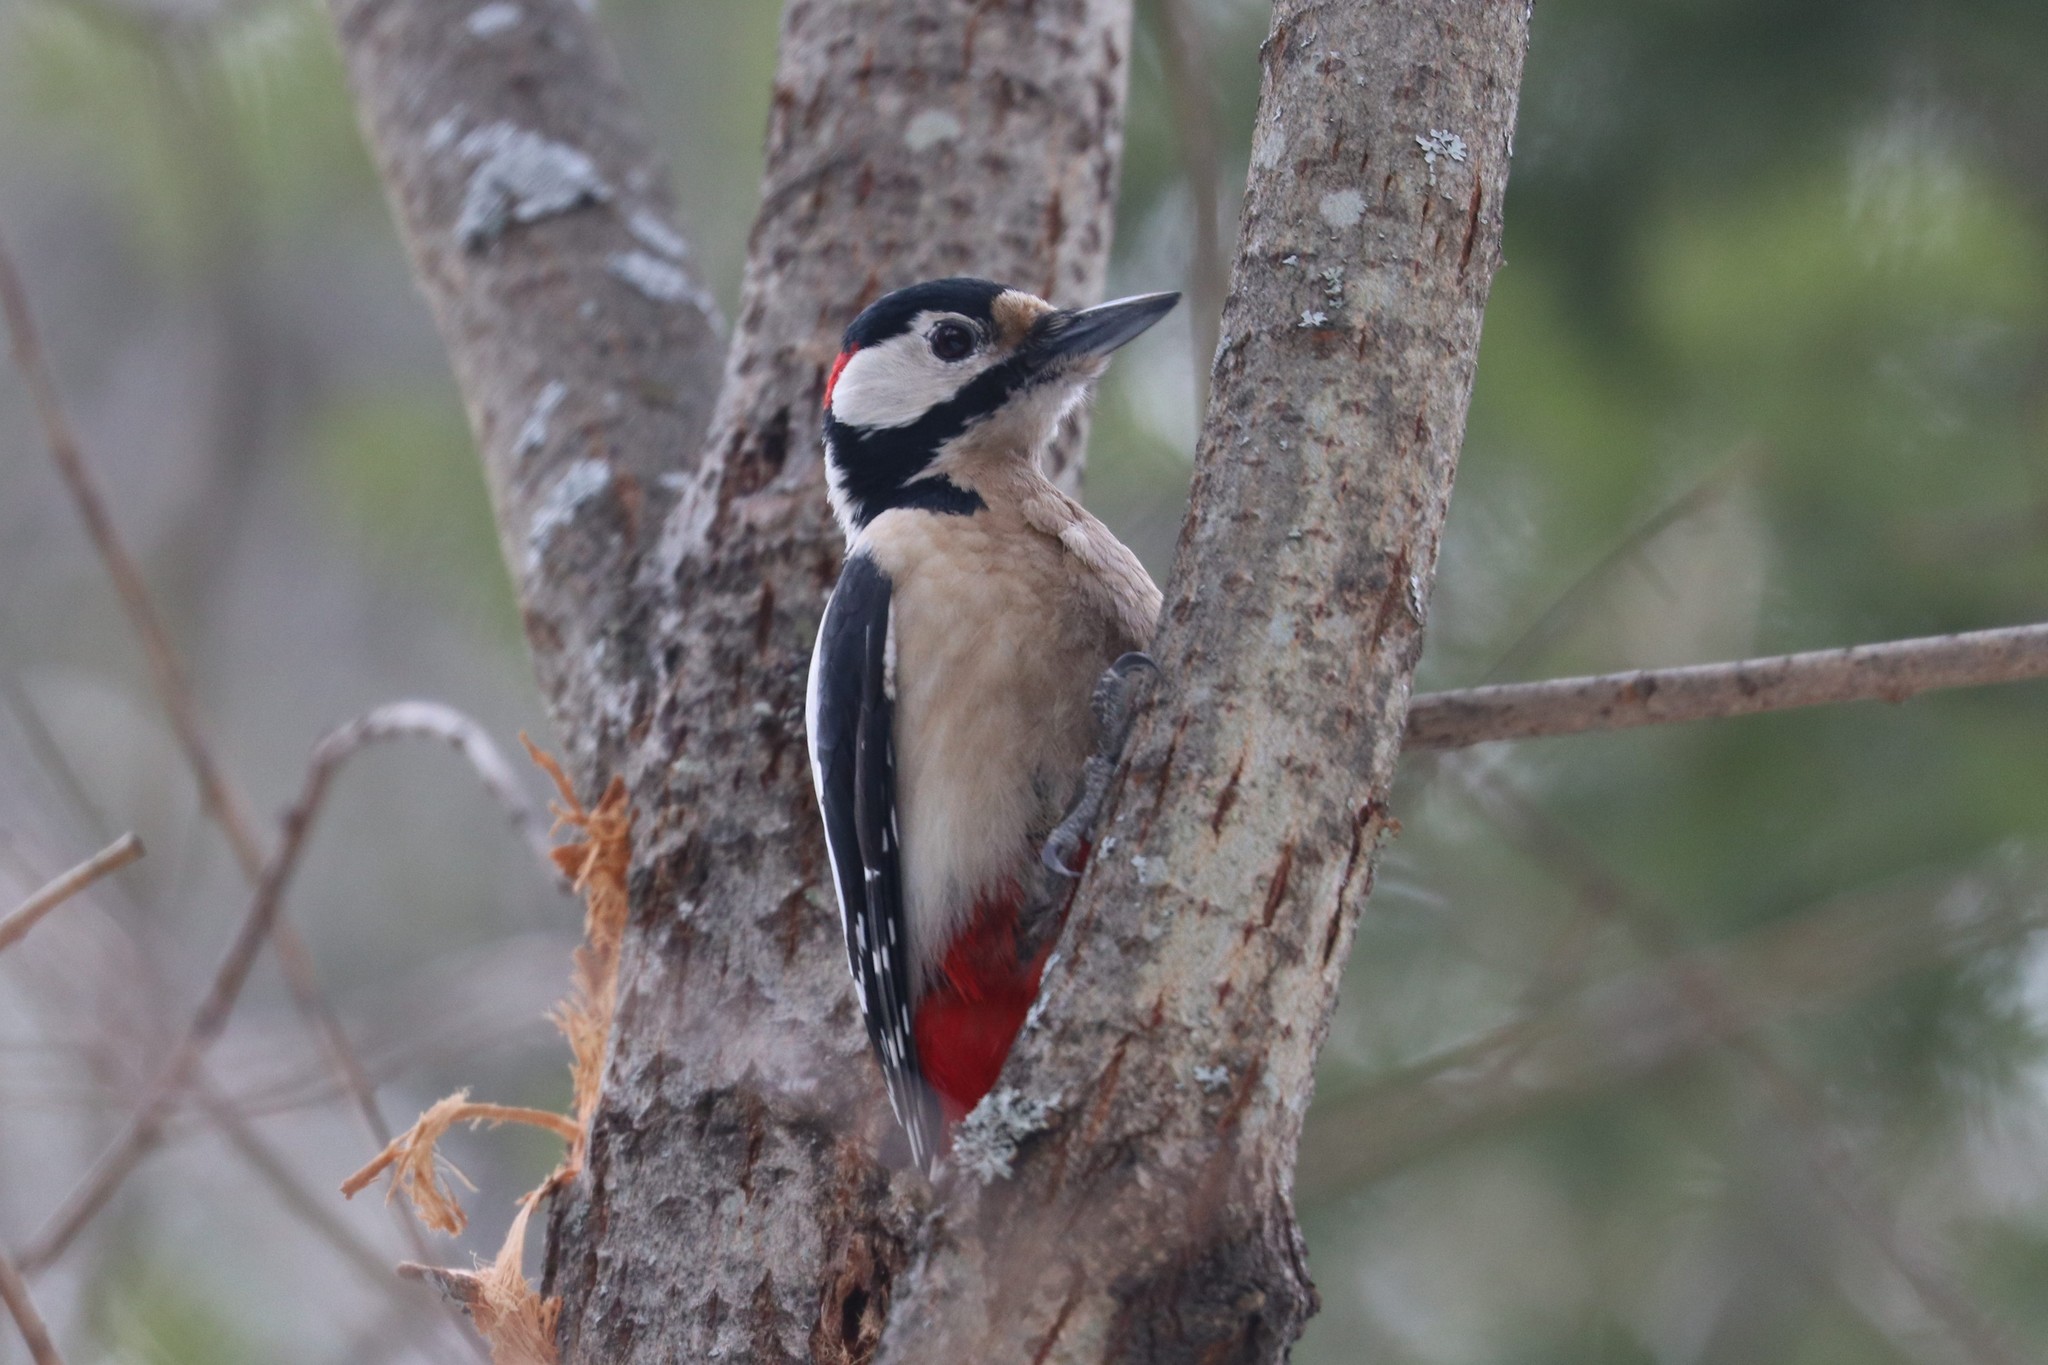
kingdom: Animalia
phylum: Chordata
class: Aves
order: Piciformes
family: Picidae
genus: Dendrocopos
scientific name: Dendrocopos major
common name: Great spotted woodpecker
